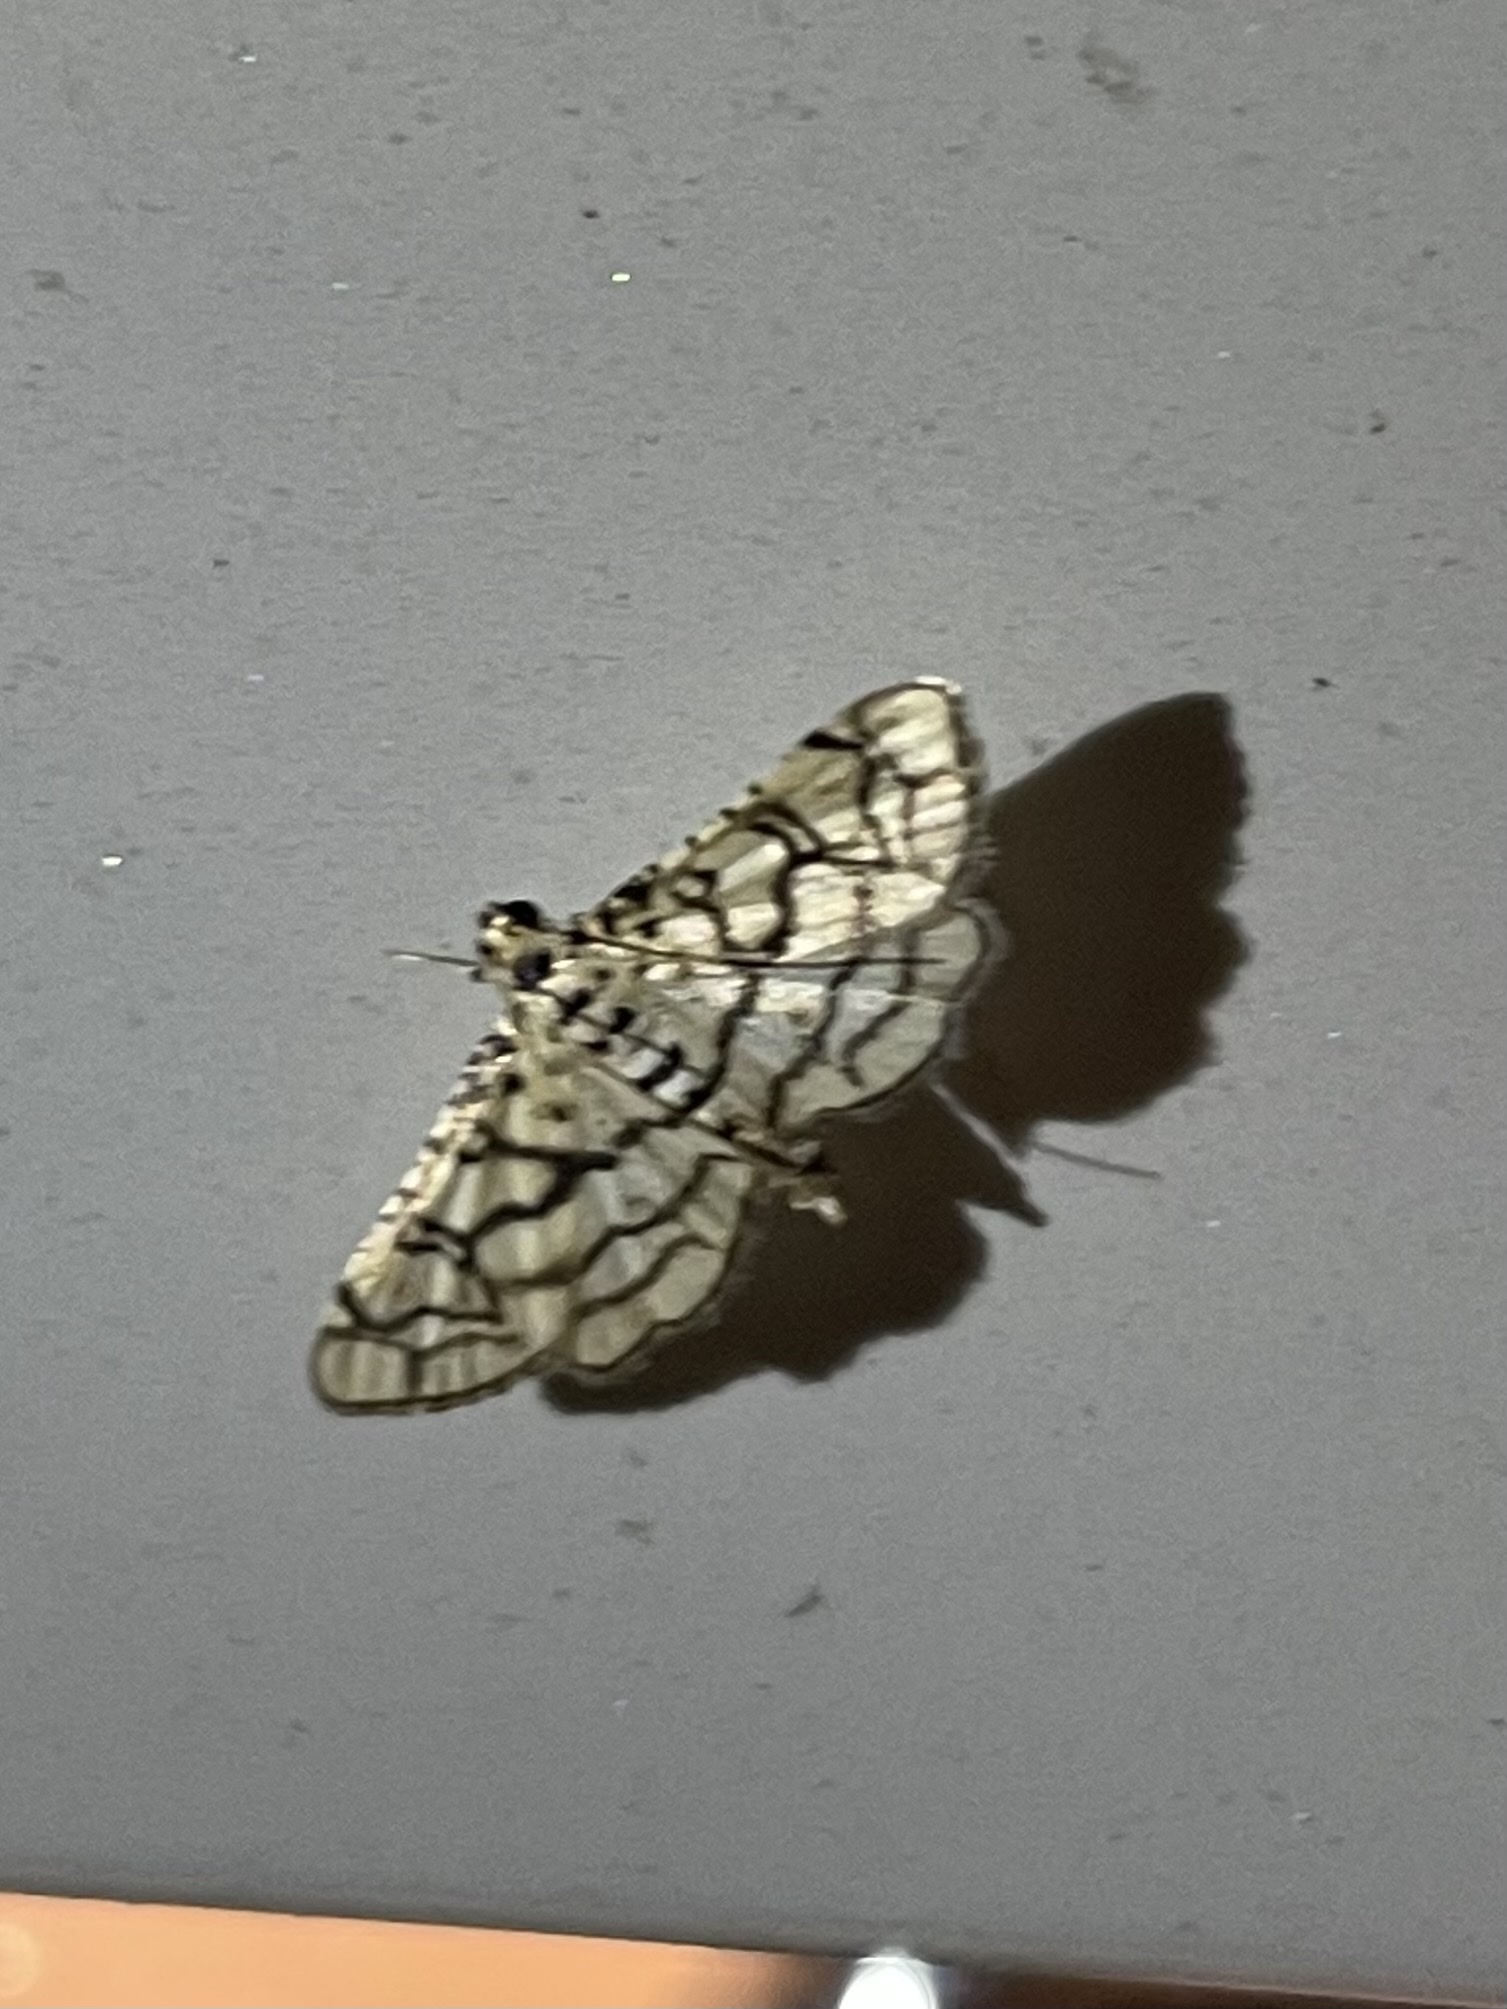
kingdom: Animalia
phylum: Arthropoda
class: Insecta
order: Lepidoptera
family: Crambidae
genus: Hileithia
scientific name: Hileithia rehamalis
